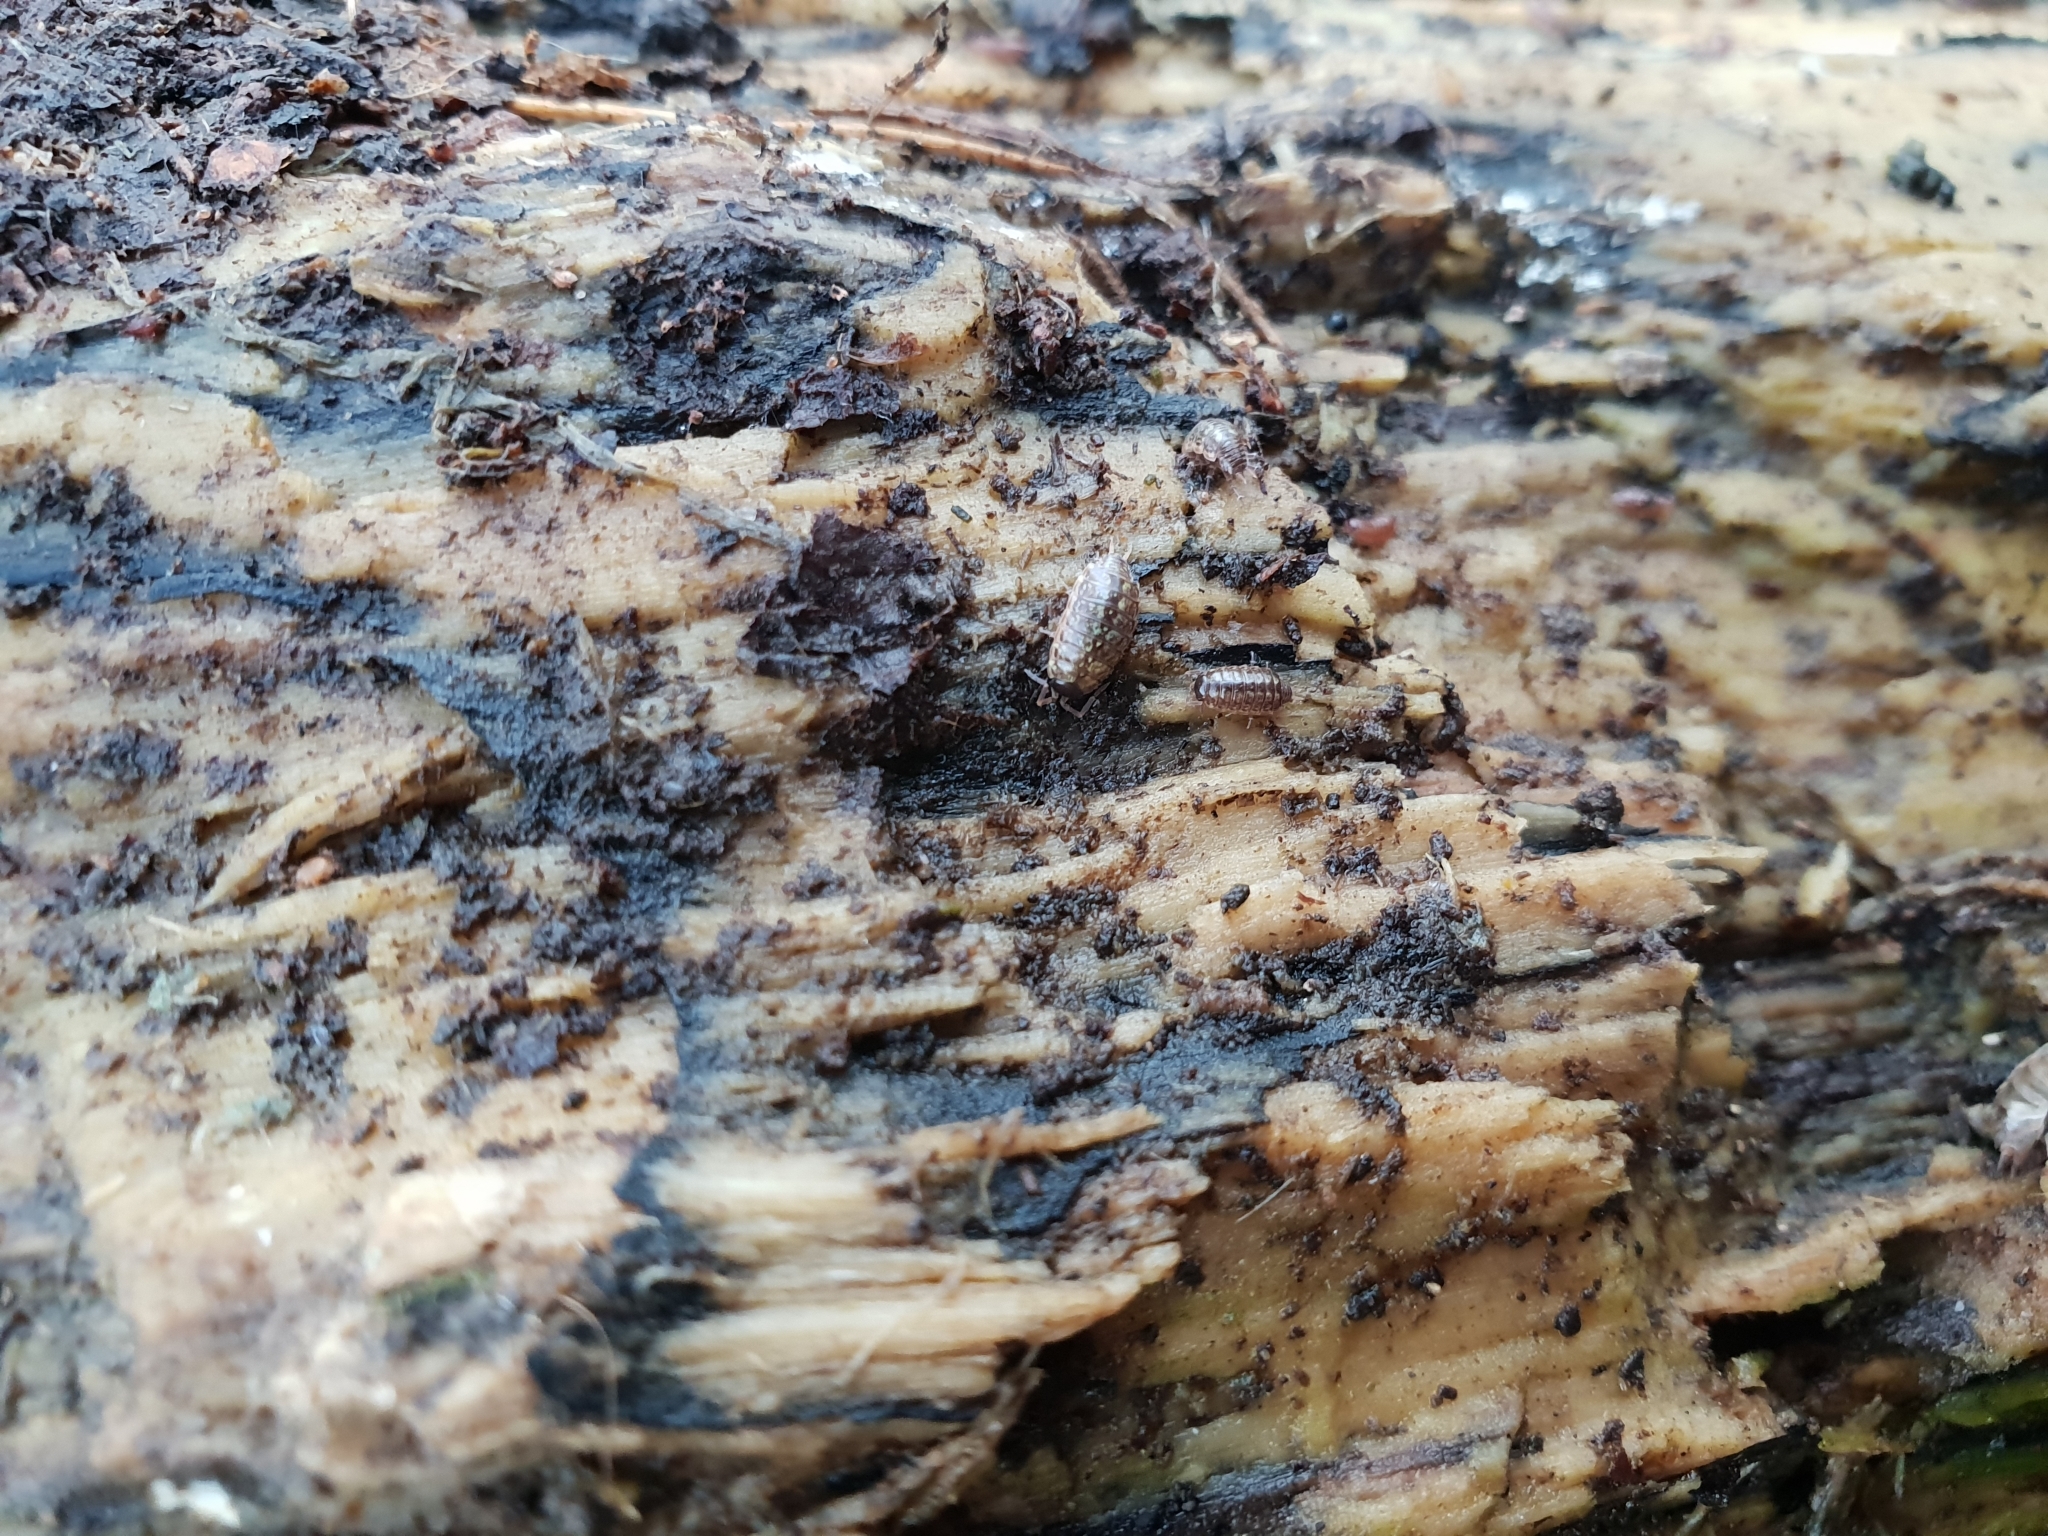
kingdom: Animalia
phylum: Arthropoda
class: Malacostraca
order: Isopoda
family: Philosciidae
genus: Philoscia
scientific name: Philoscia muscorum
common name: Common striped woodlouse
